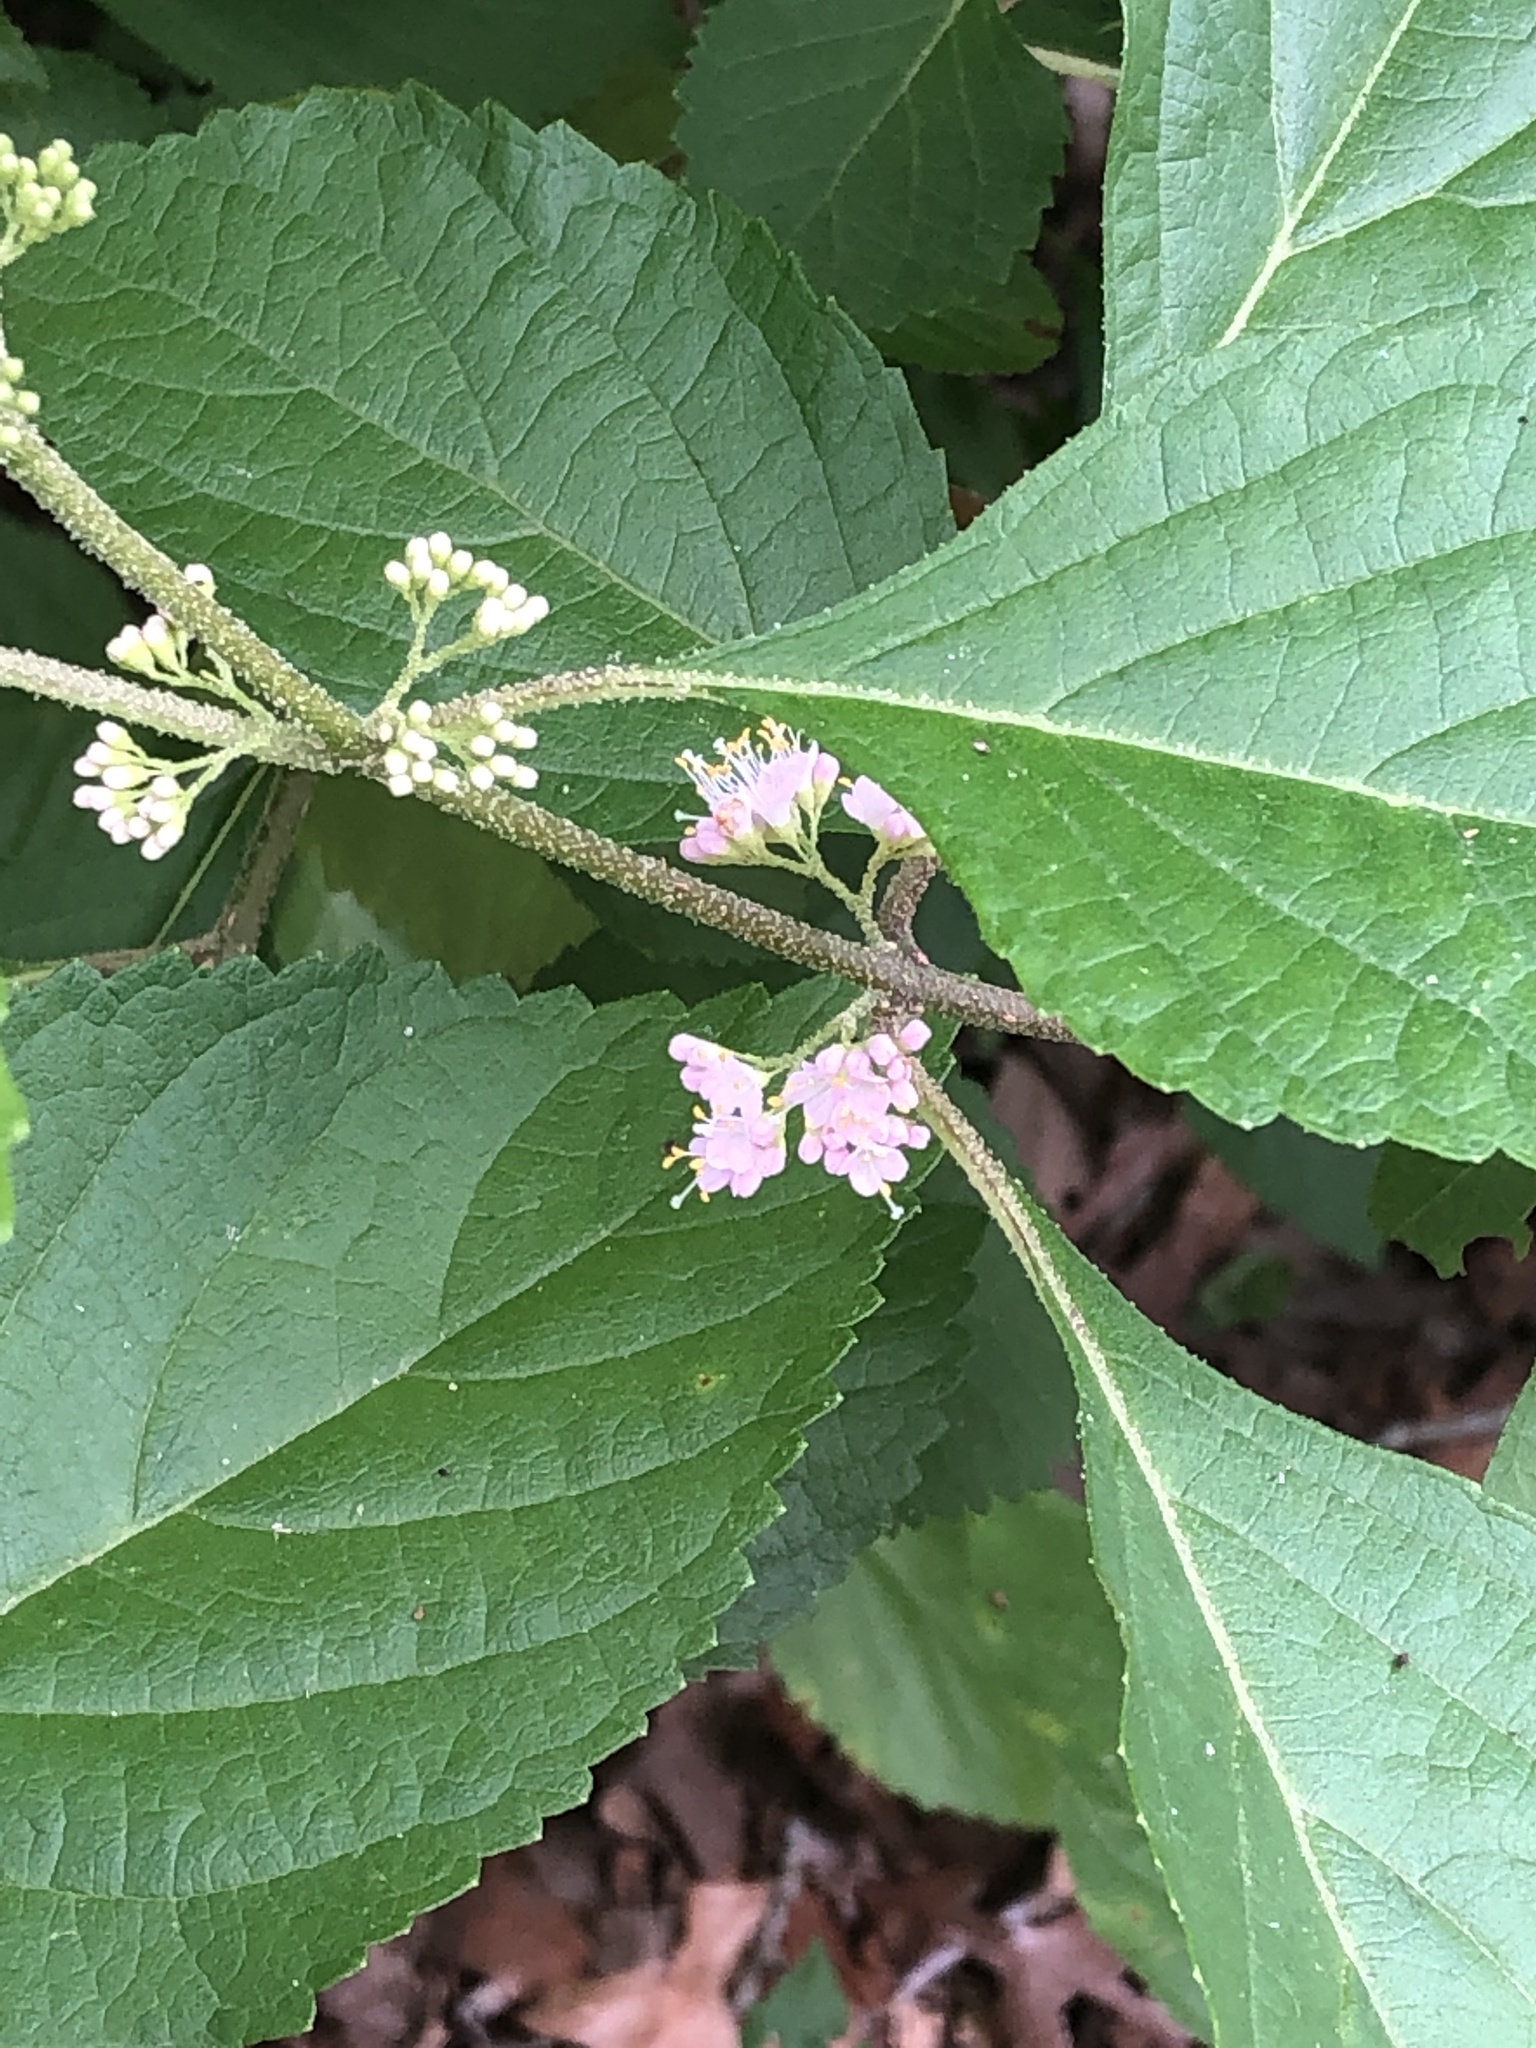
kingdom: Plantae
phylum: Tracheophyta
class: Magnoliopsida
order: Lamiales
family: Lamiaceae
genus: Callicarpa
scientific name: Callicarpa americana
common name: American beautyberry
